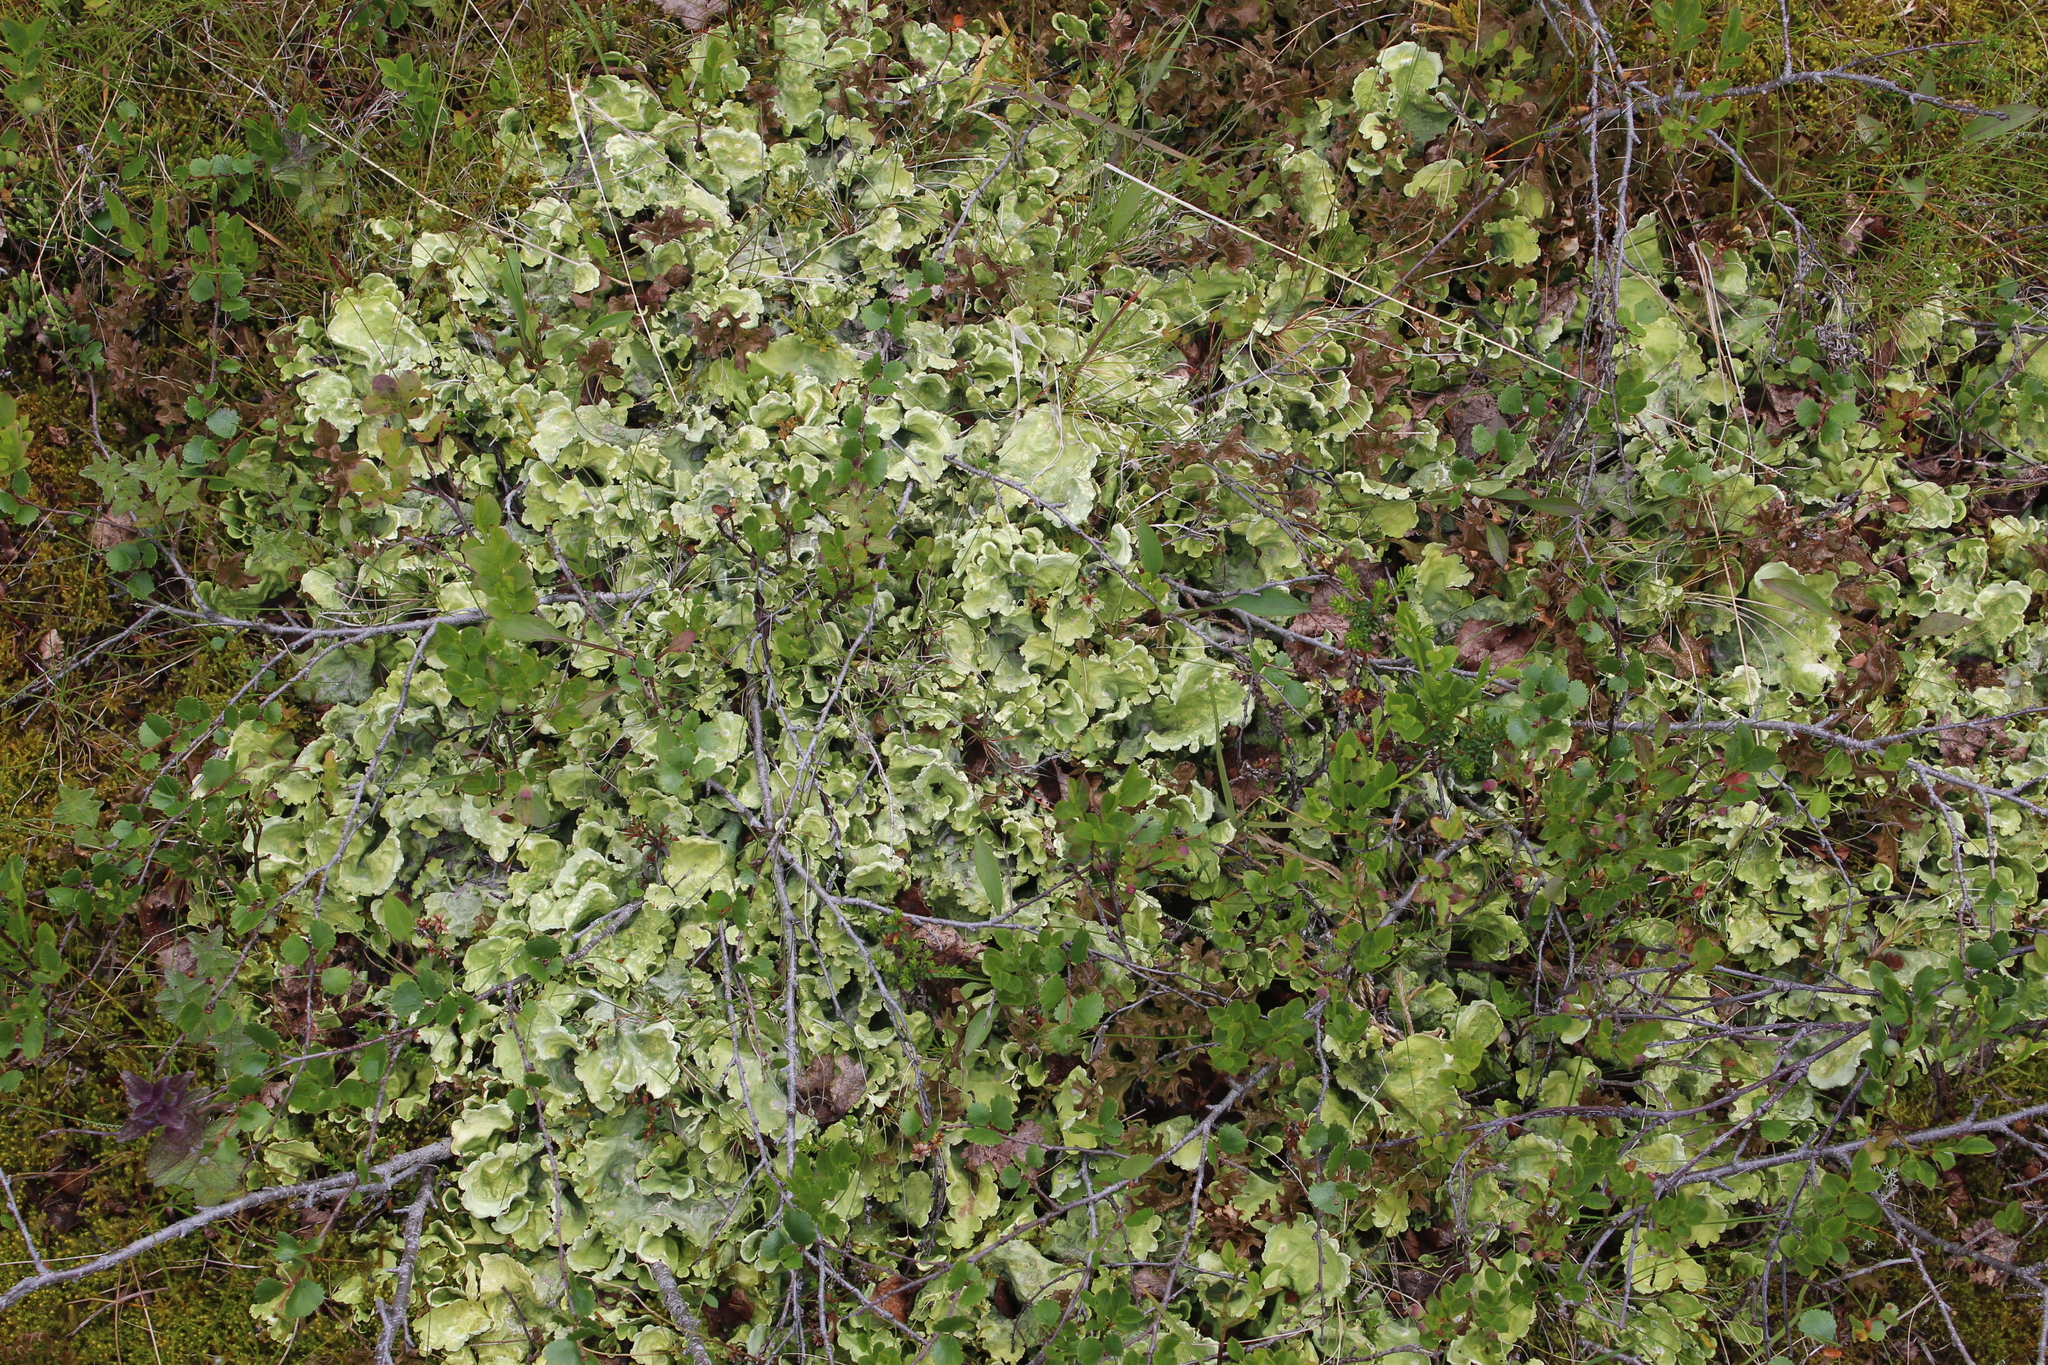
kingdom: Fungi
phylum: Ascomycota
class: Lecanoromycetes
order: Peltigerales
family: Nephromataceae
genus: Nephroma
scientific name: Nephroma arcticum
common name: Arctic kidney-lichen
